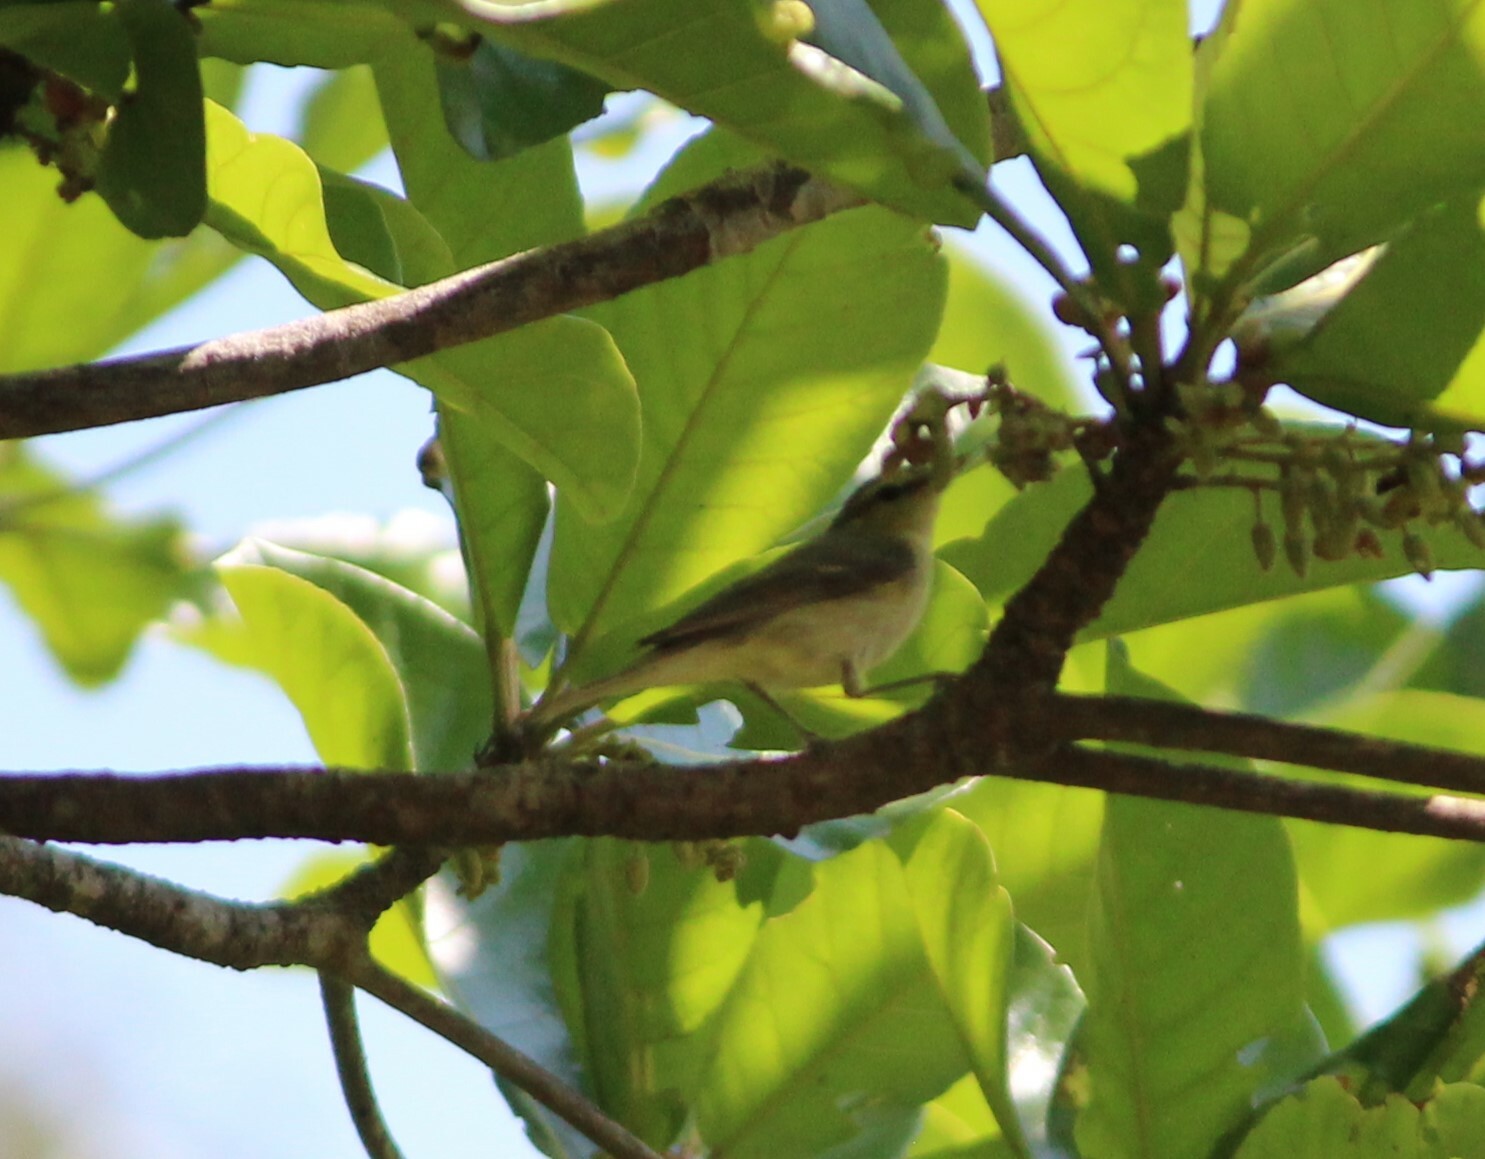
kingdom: Animalia
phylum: Chordata
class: Aves
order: Passeriformes
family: Phylloscopidae
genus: Phylloscopus
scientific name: Phylloscopus trochiloides
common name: Greenish warbler
